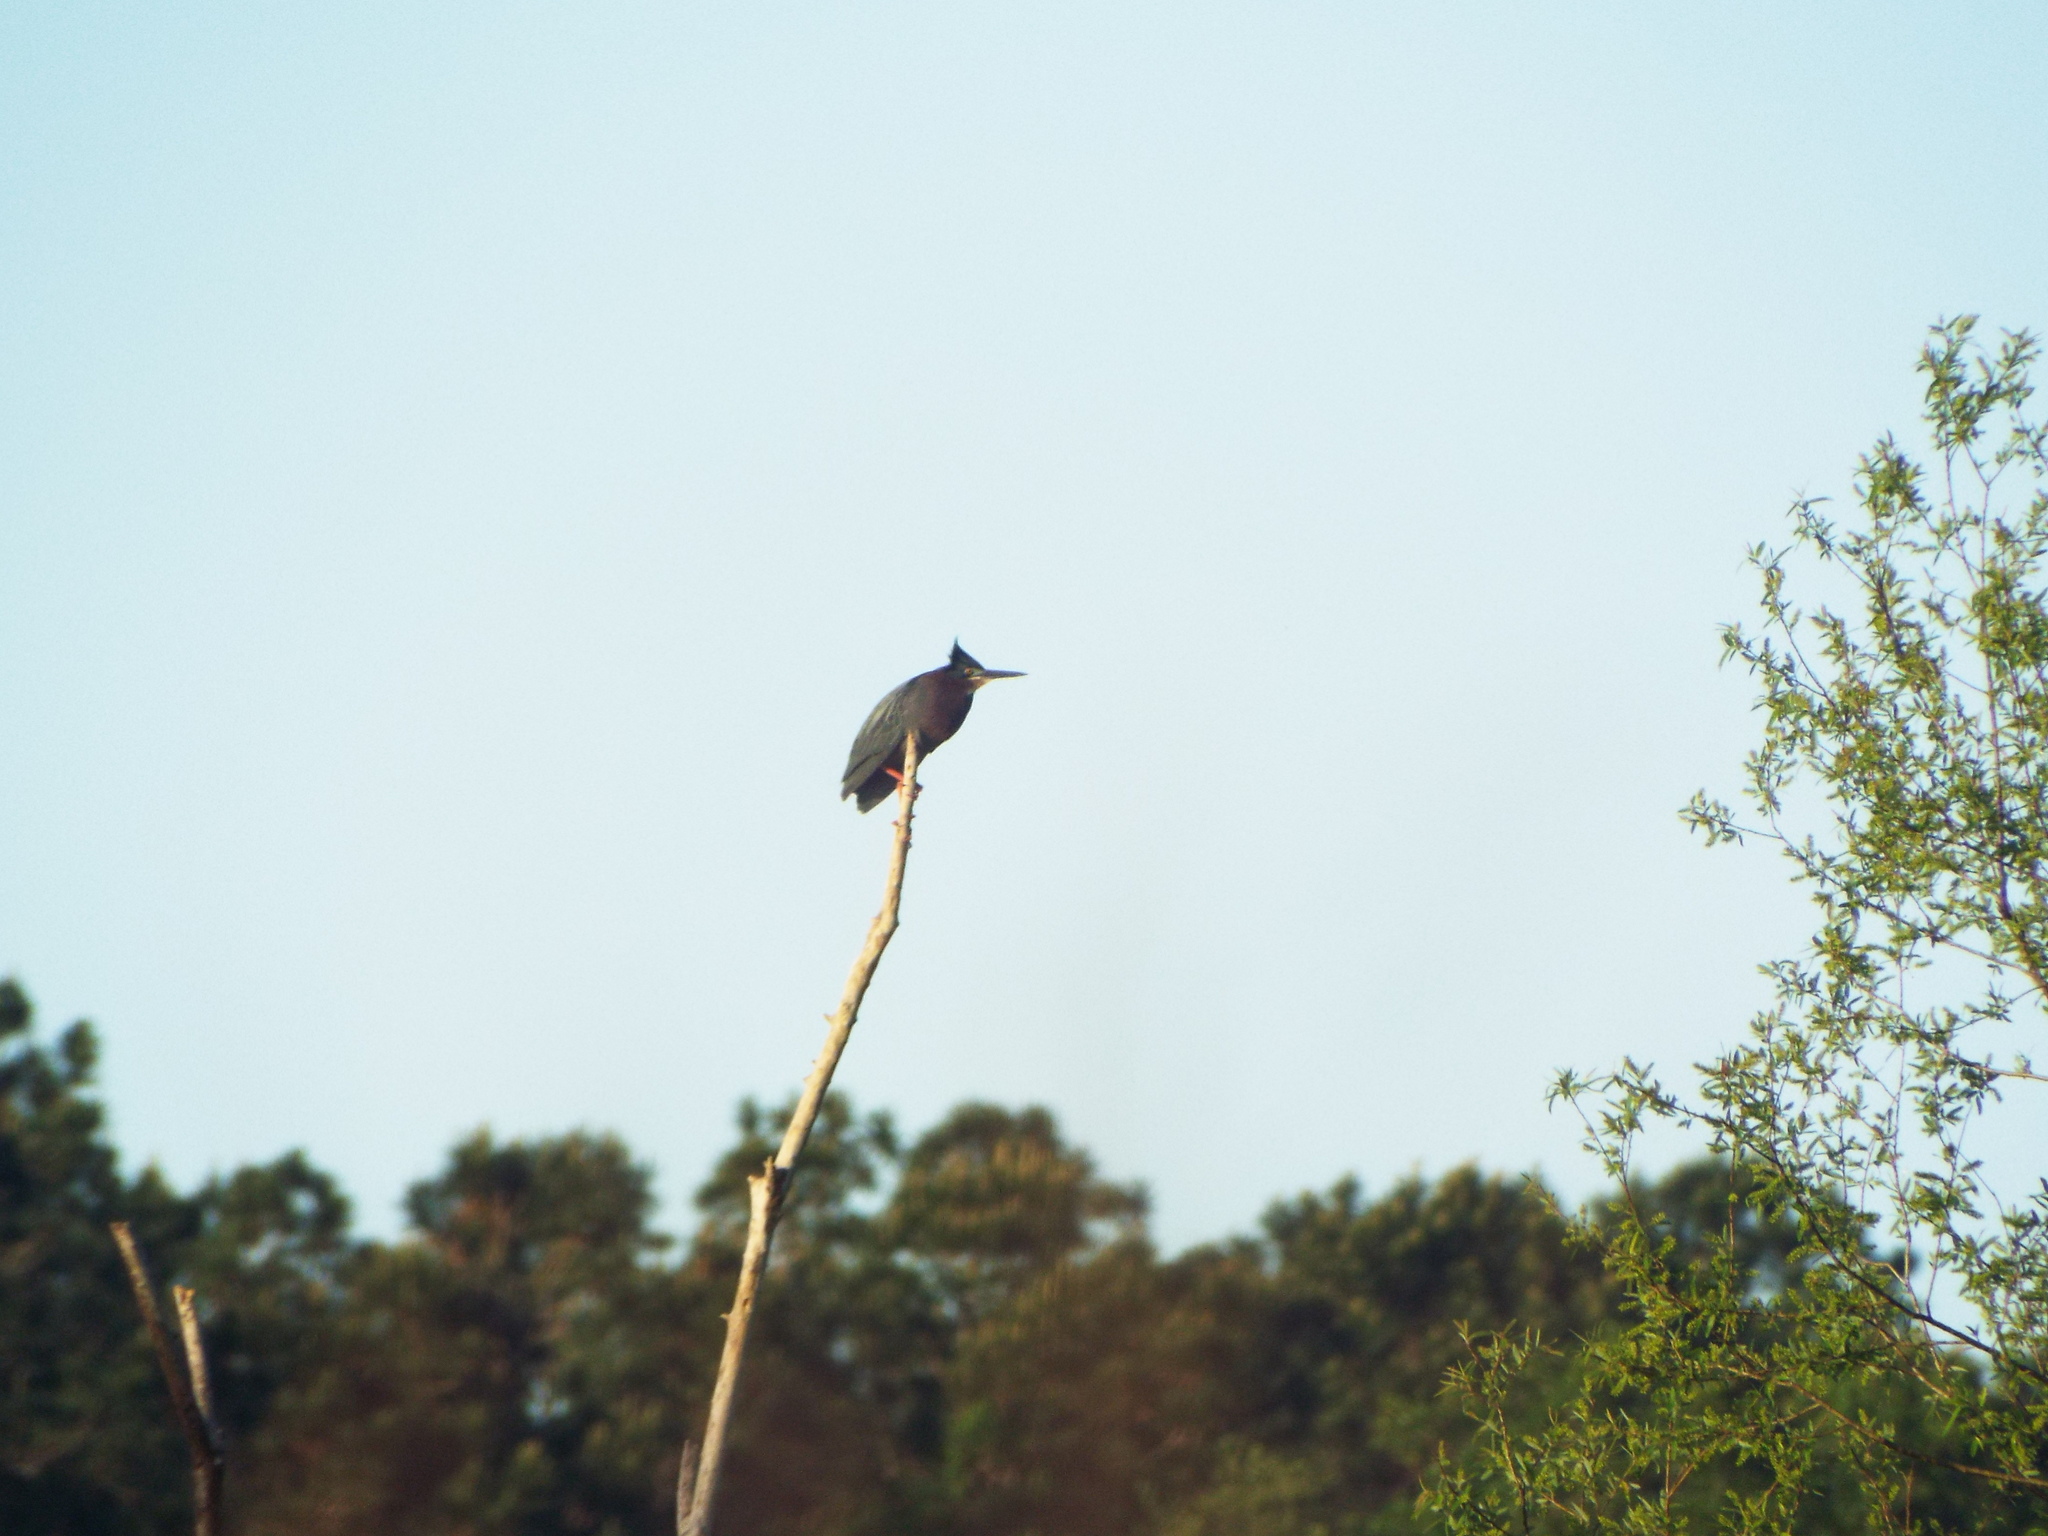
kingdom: Animalia
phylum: Chordata
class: Aves
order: Pelecaniformes
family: Ardeidae
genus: Butorides
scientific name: Butorides virescens
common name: Green heron
